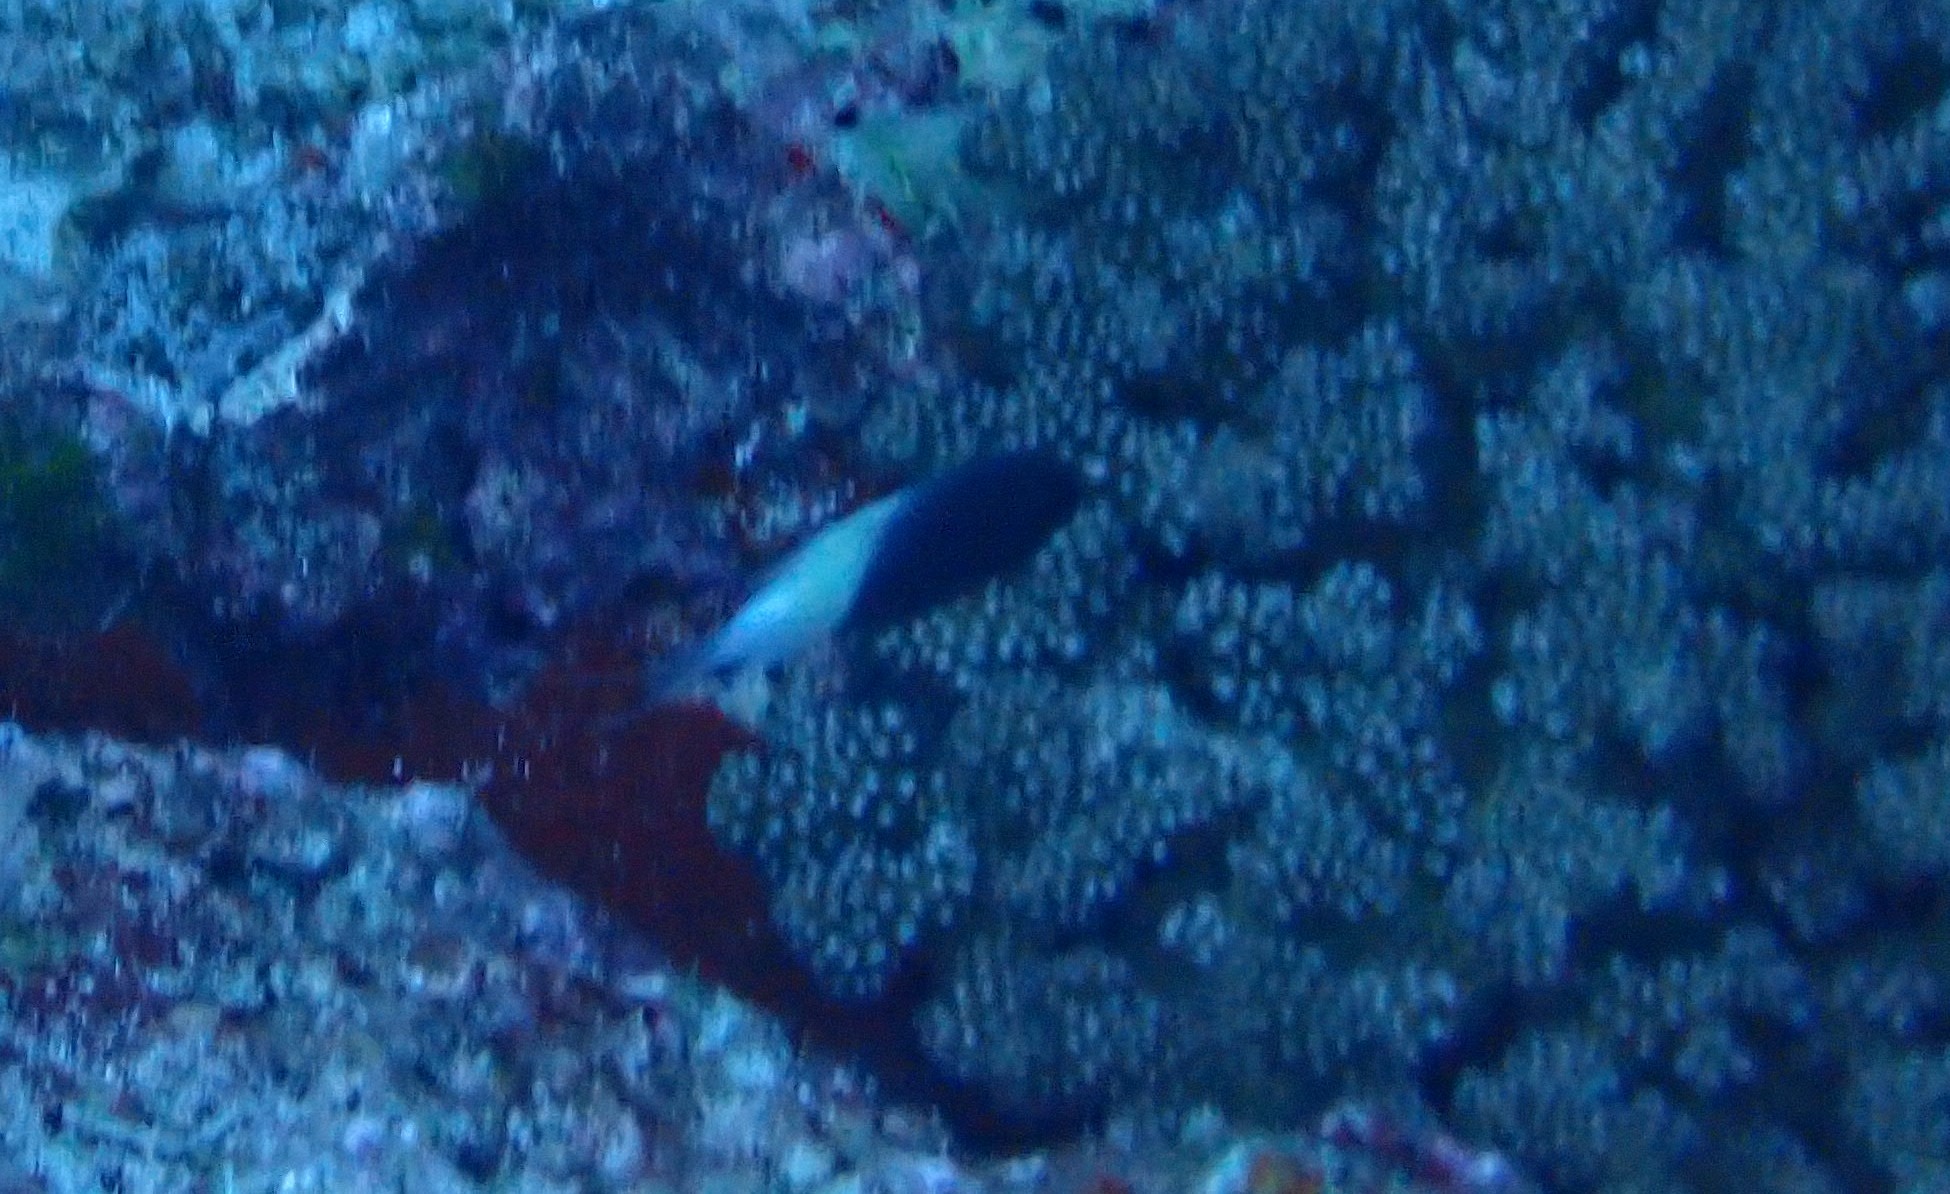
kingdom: Animalia
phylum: Chordata
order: Perciformes
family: Pomacentridae
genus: Chromis
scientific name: Chromis fieldi
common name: Chocolatedip chromis
